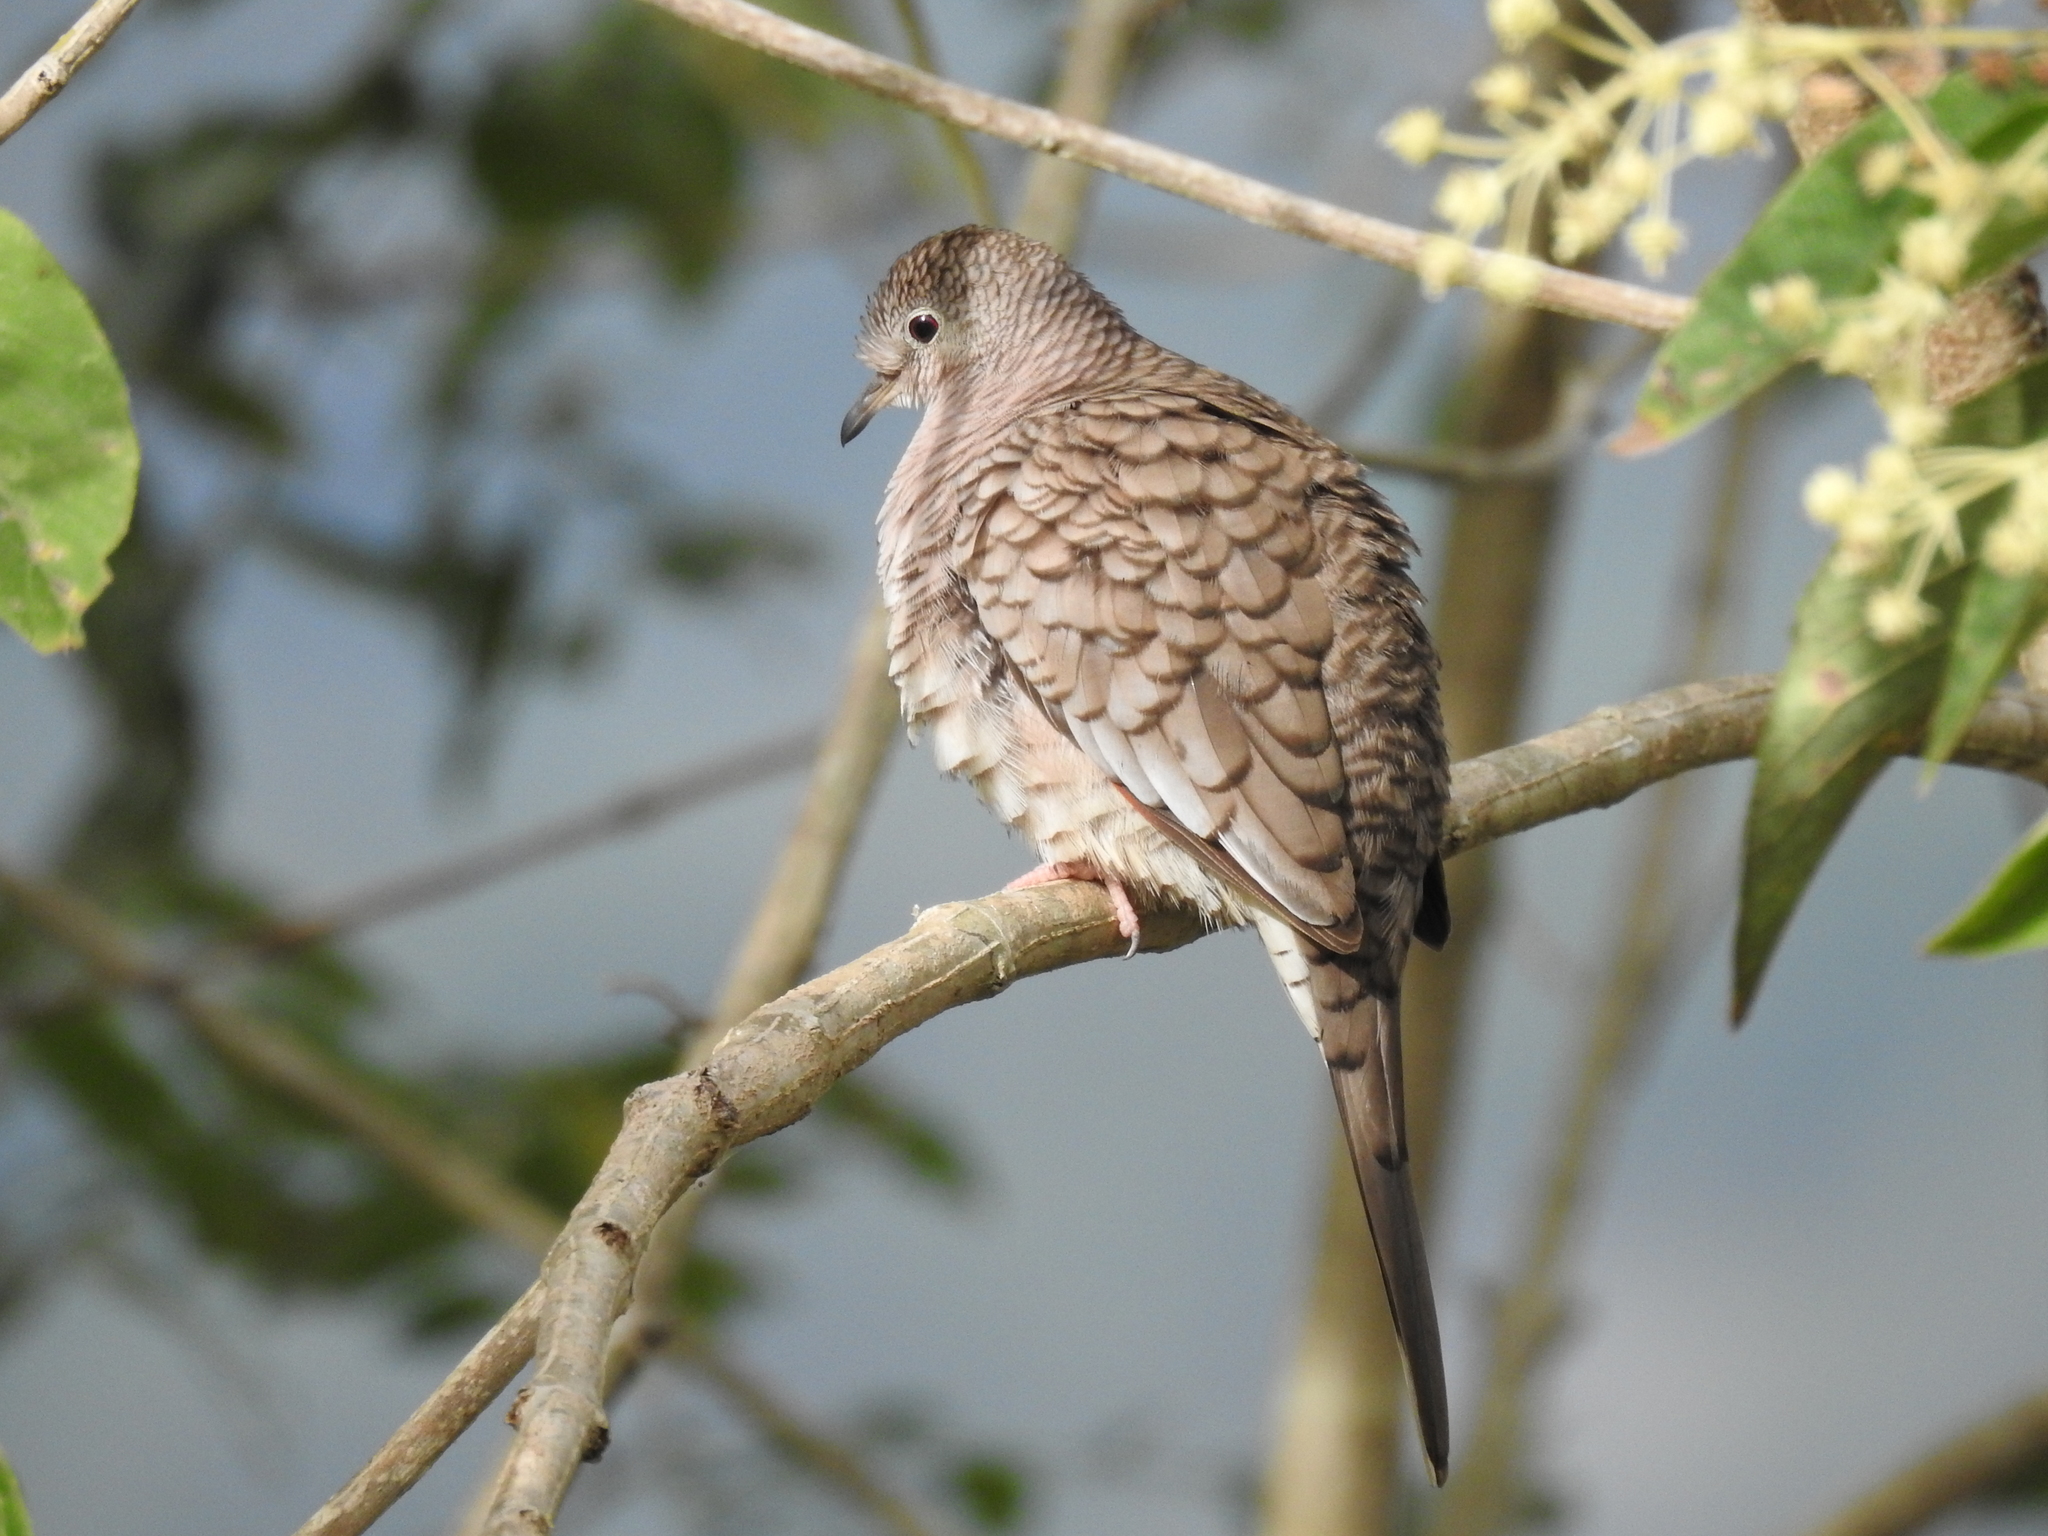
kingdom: Animalia
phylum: Chordata
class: Aves
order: Columbiformes
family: Columbidae
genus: Columbina
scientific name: Columbina inca
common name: Inca dove
